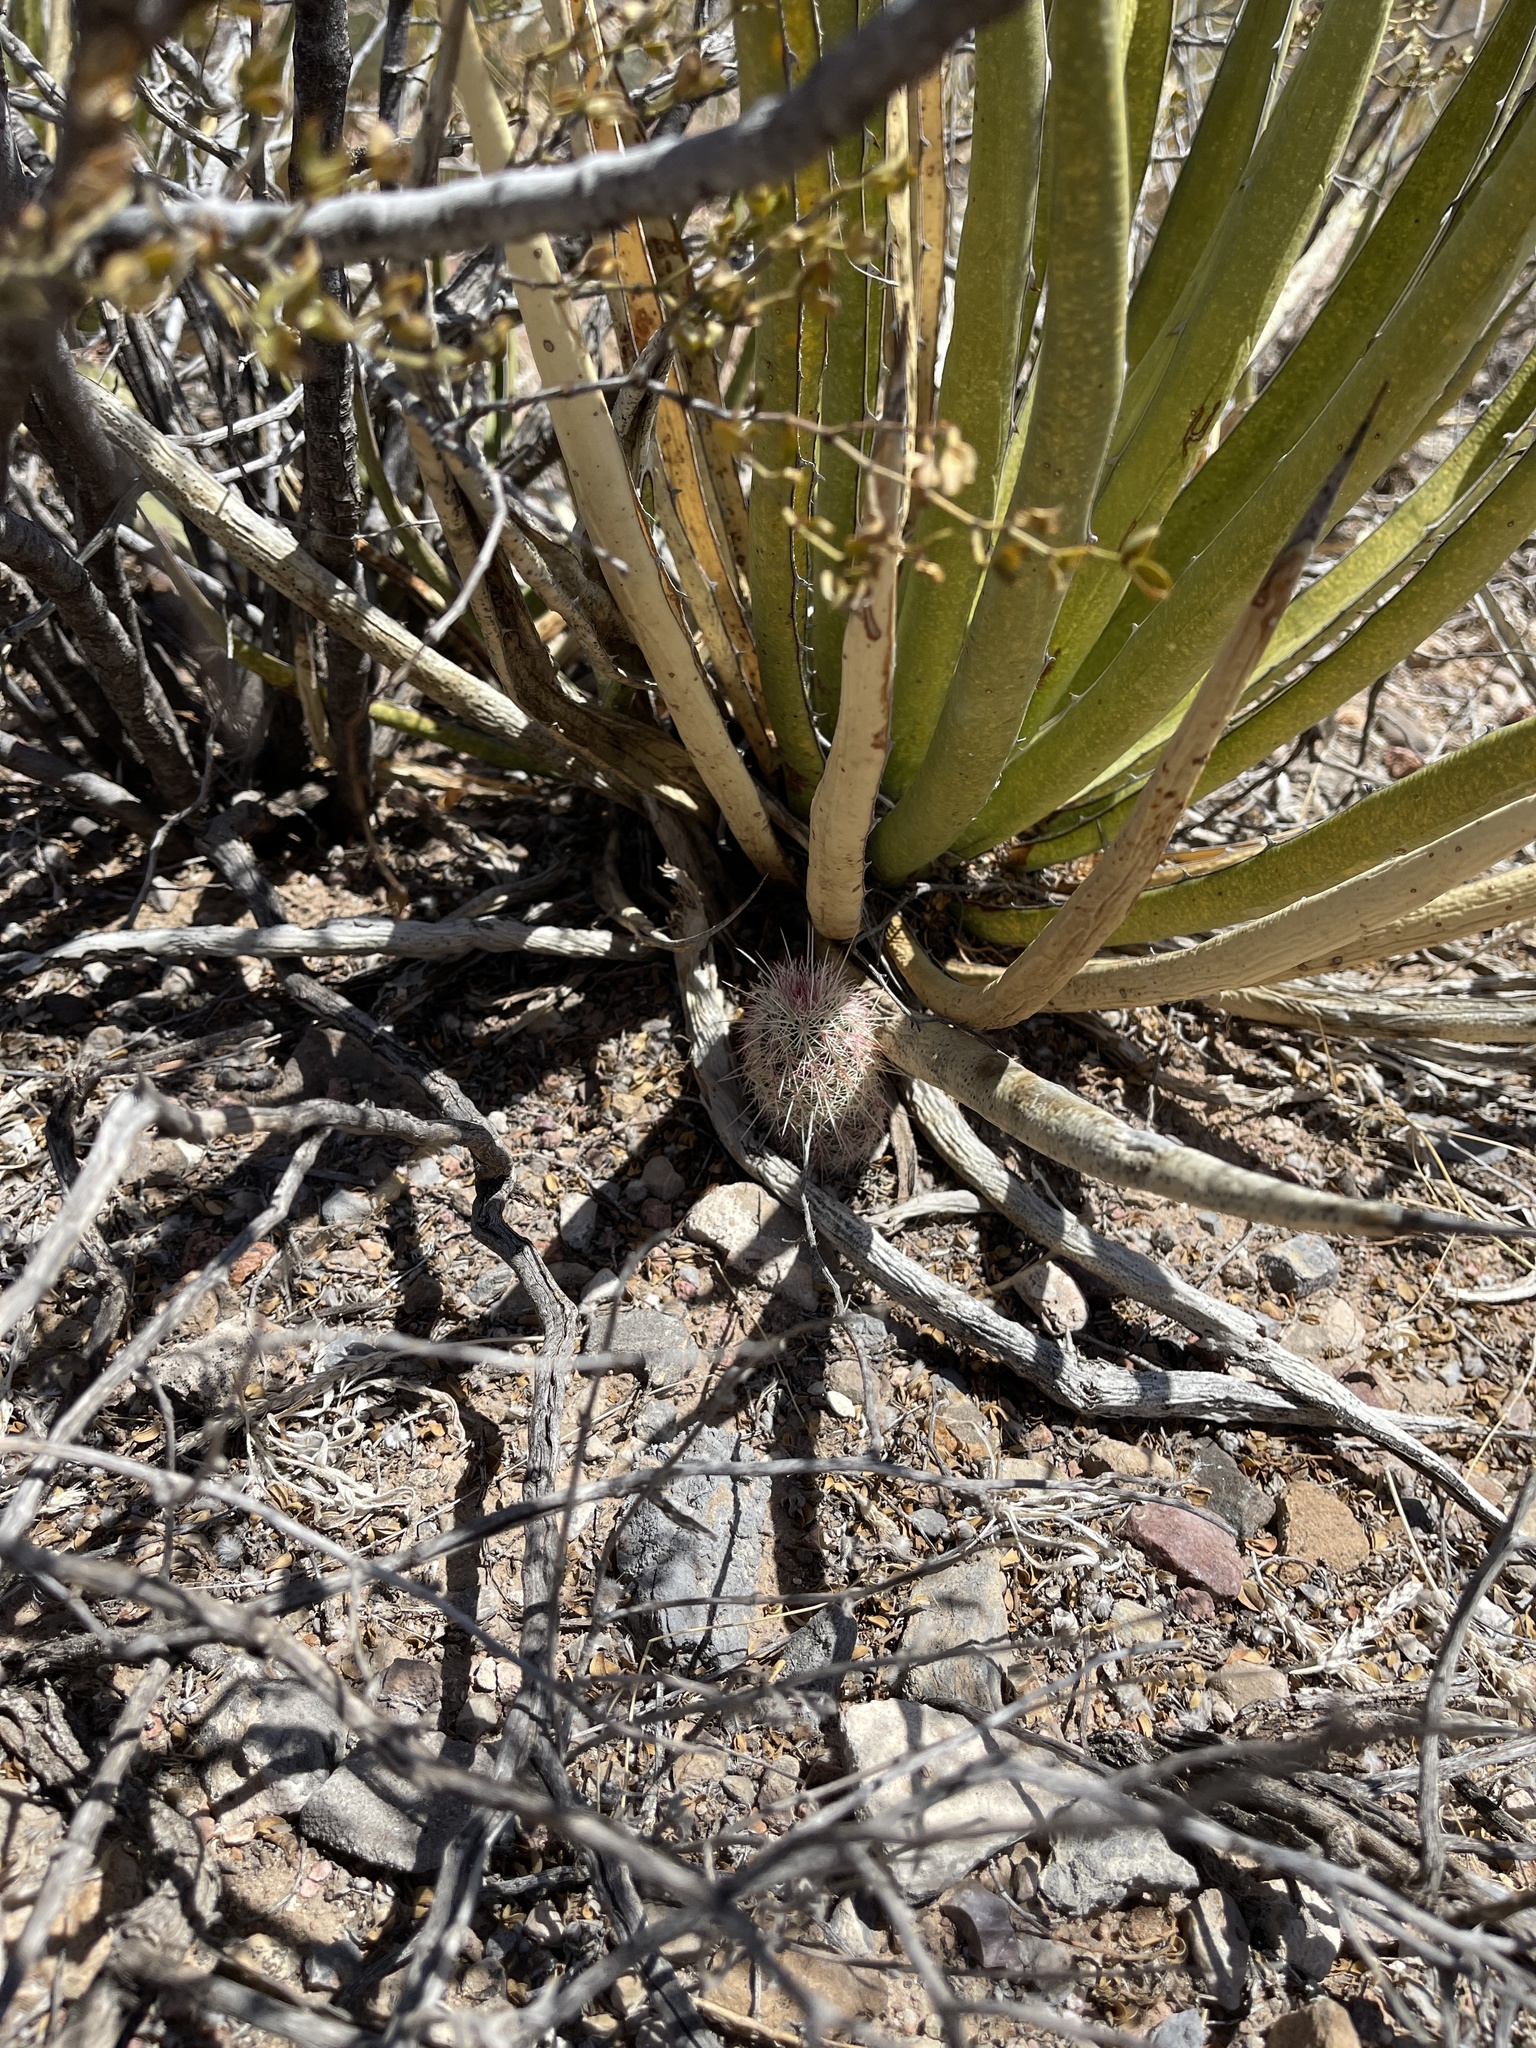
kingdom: Plantae
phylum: Tracheophyta
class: Magnoliopsida
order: Caryophyllales
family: Cactaceae
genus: Echinocereus
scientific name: Echinocereus viridiflorus
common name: Nylon hedgehog cactus
